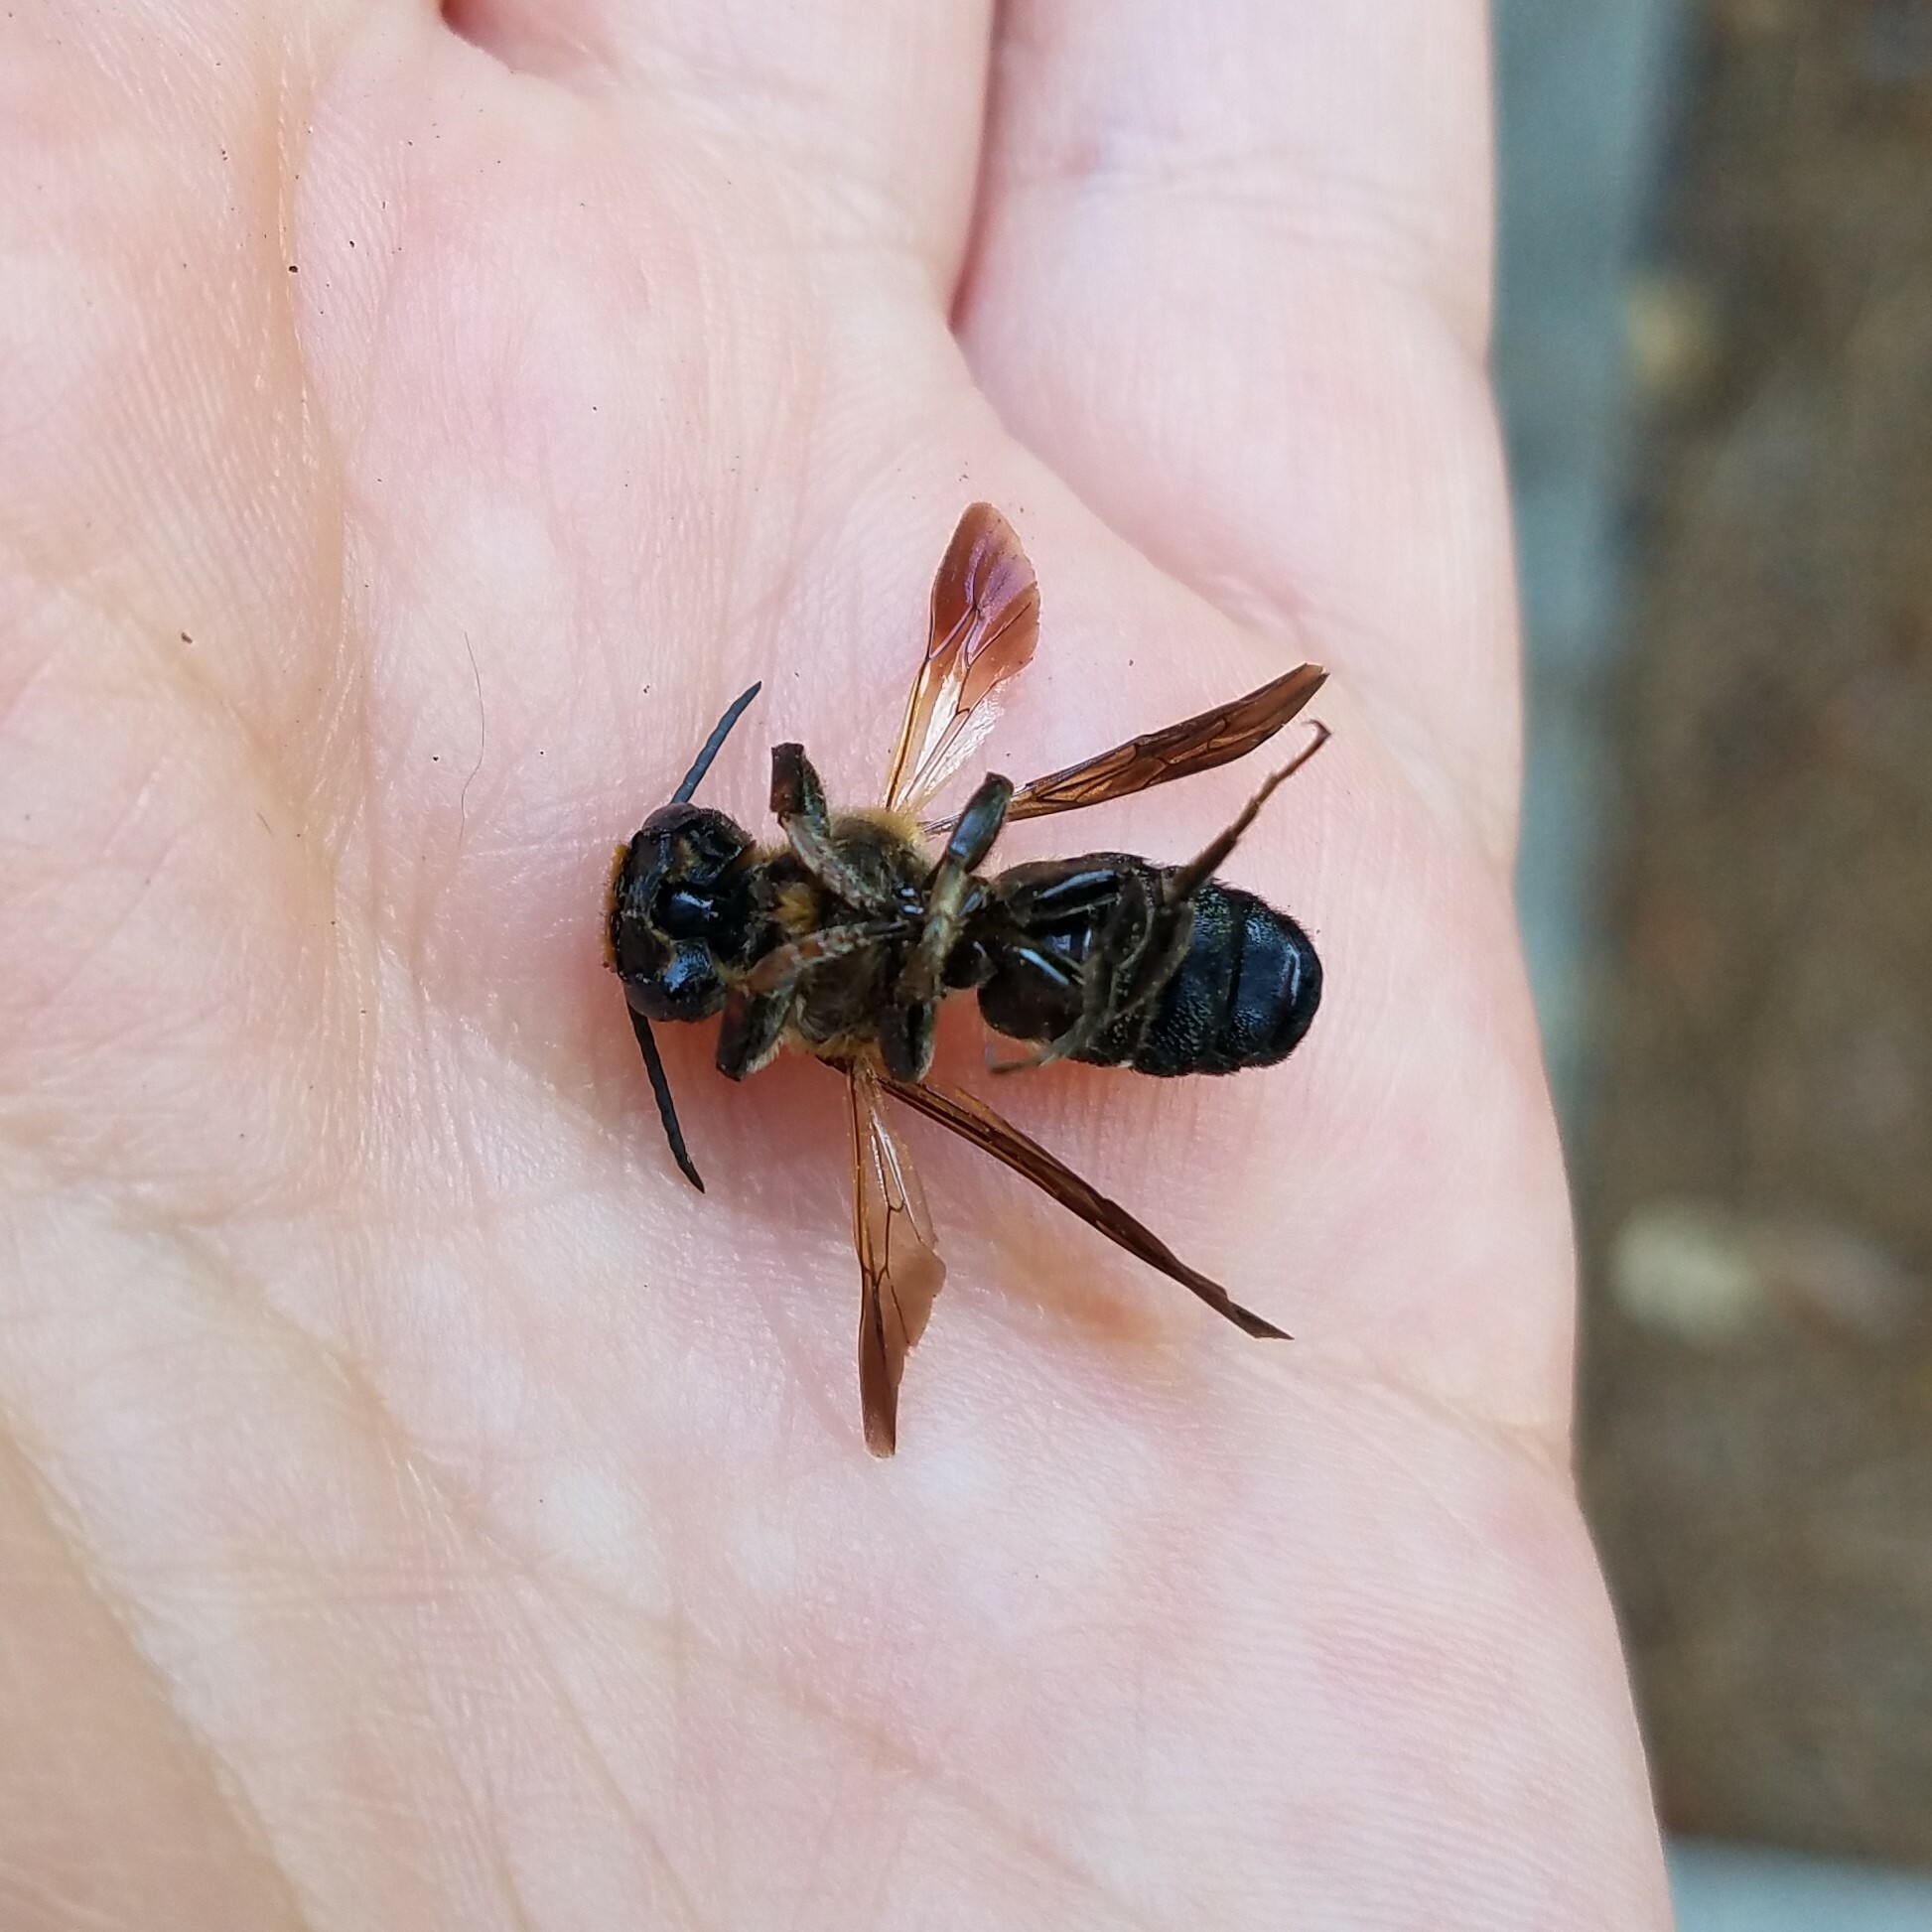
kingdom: Animalia
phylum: Arthropoda
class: Insecta
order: Hymenoptera
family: Megachilidae
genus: Megachile
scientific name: Megachile sculpturalis
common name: Sculptured resin bee
